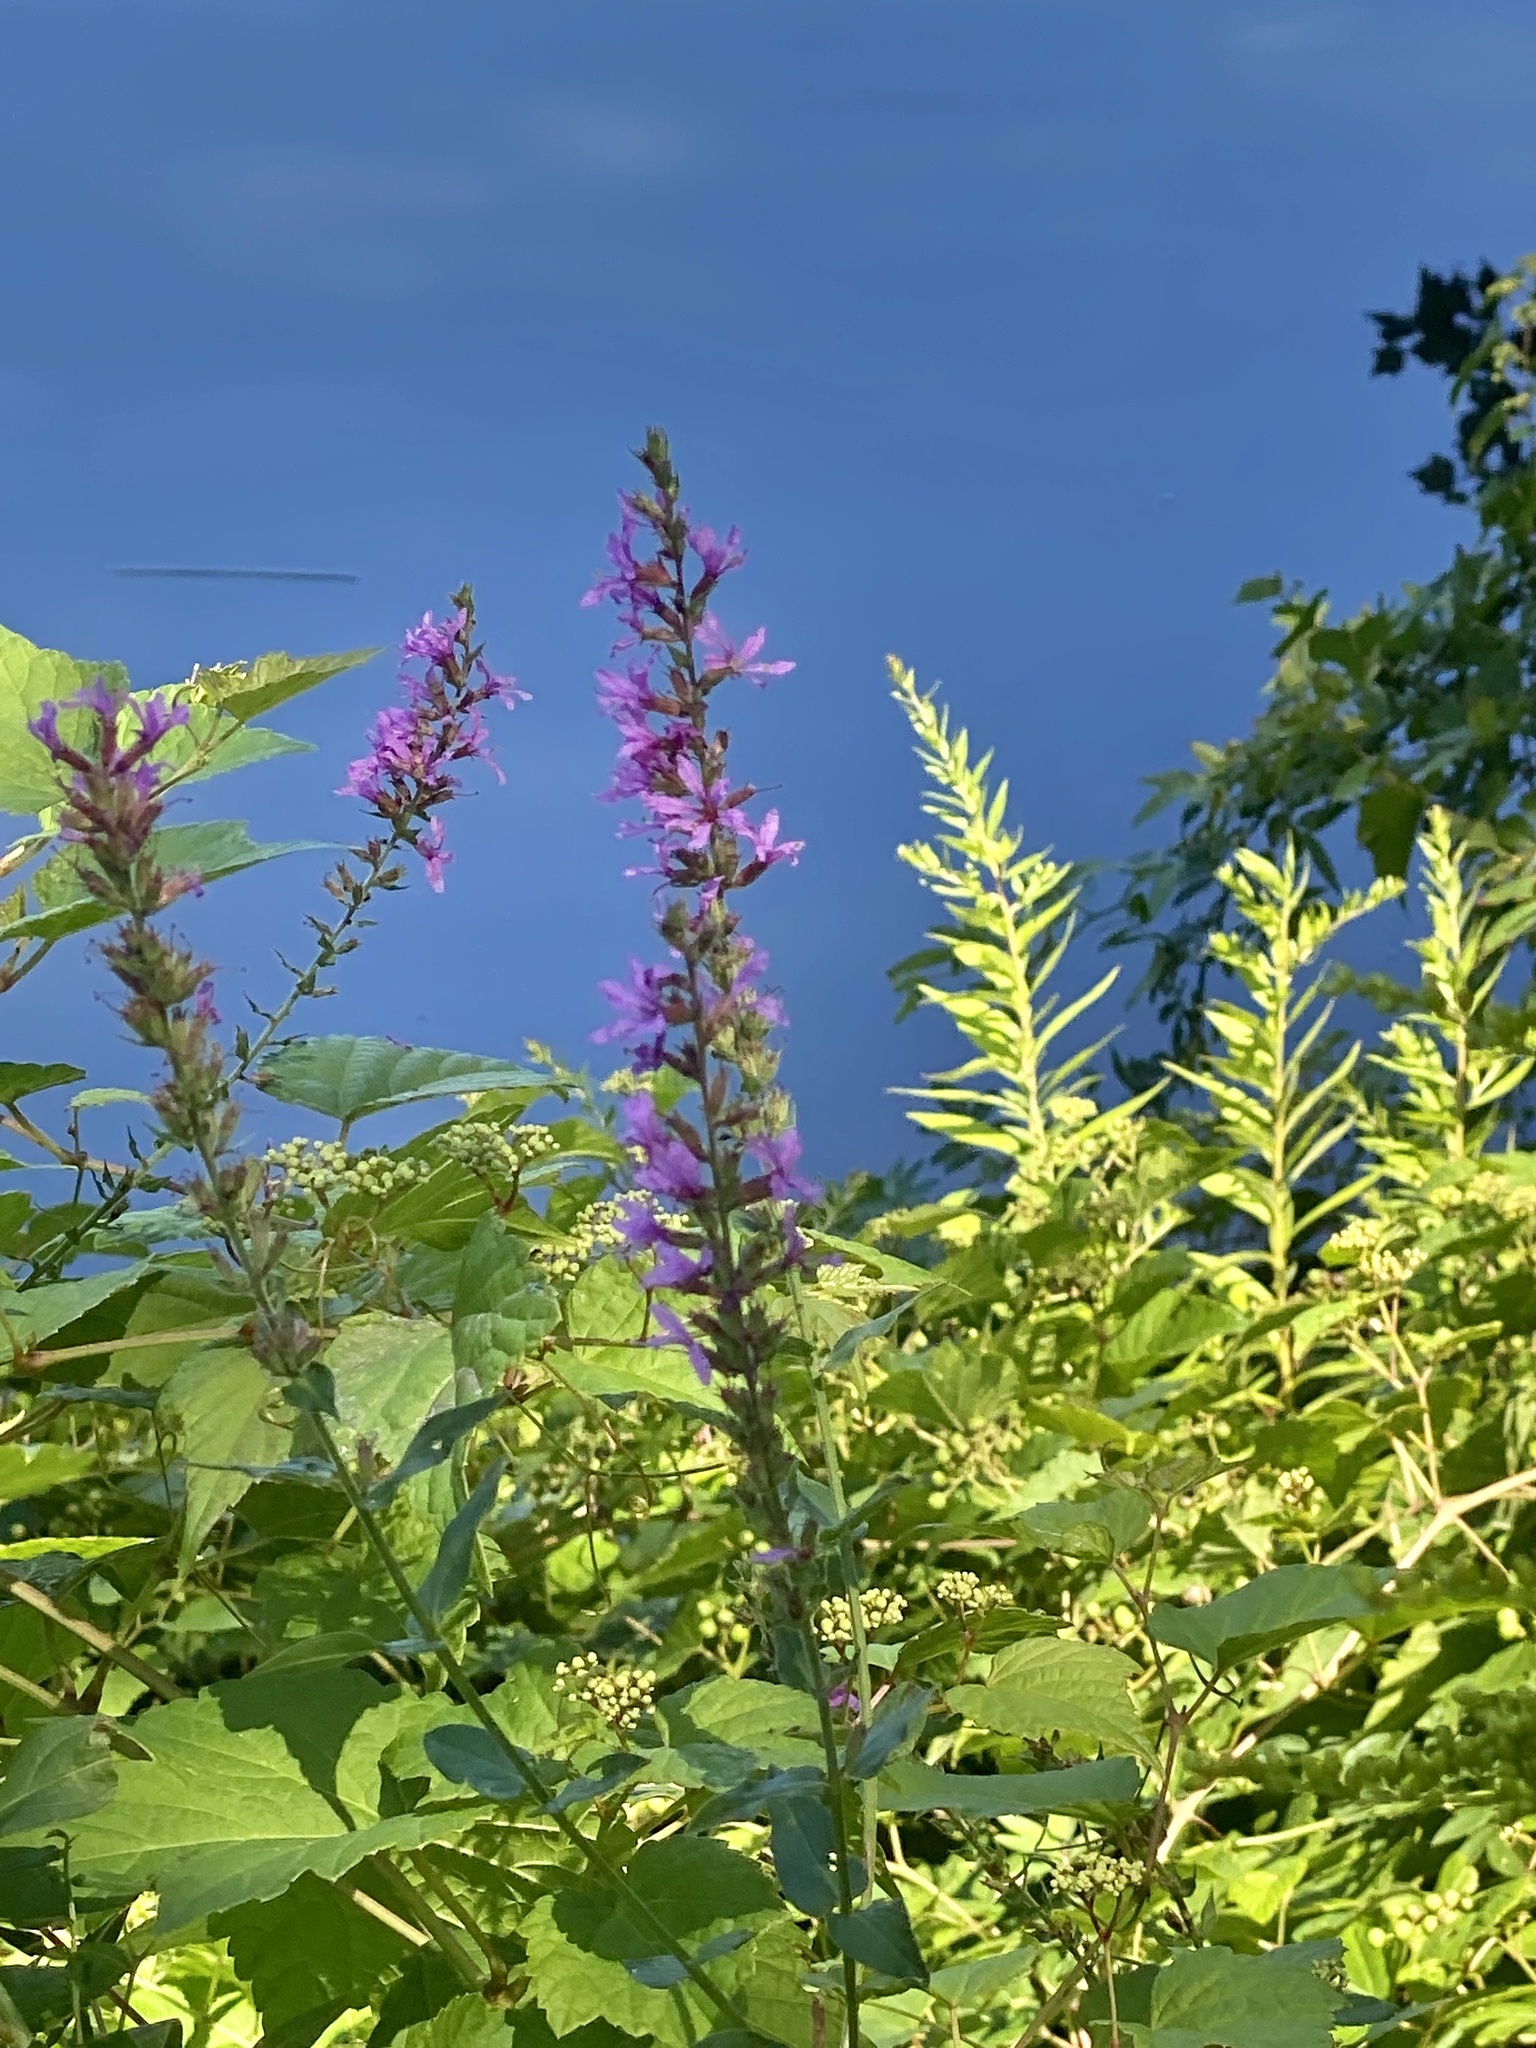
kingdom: Plantae
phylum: Tracheophyta
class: Magnoliopsida
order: Myrtales
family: Lythraceae
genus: Lythrum
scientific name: Lythrum salicaria
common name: Purple loosestrife
